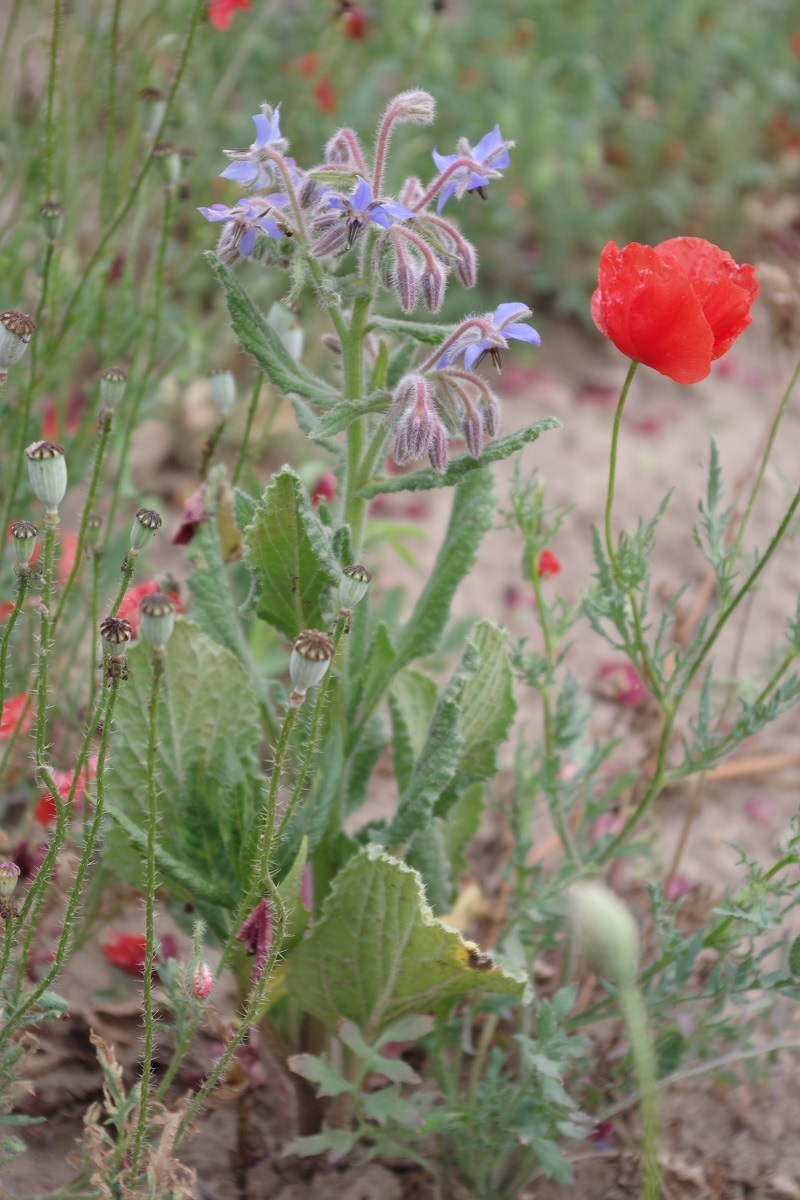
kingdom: Plantae
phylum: Tracheophyta
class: Magnoliopsida
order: Boraginales
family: Boraginaceae
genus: Borago
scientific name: Borago officinalis
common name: Borage
